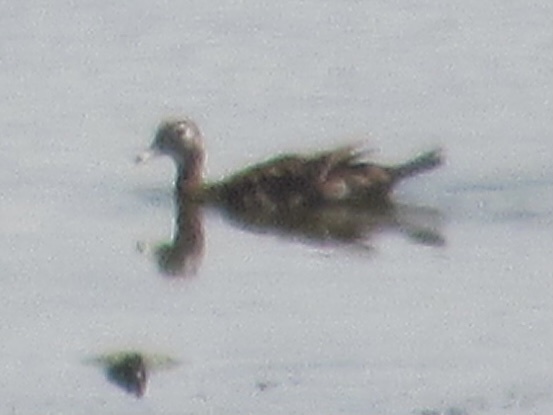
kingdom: Animalia
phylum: Chordata
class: Aves
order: Anseriformes
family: Anatidae
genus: Aix
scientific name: Aix sponsa
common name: Wood duck
